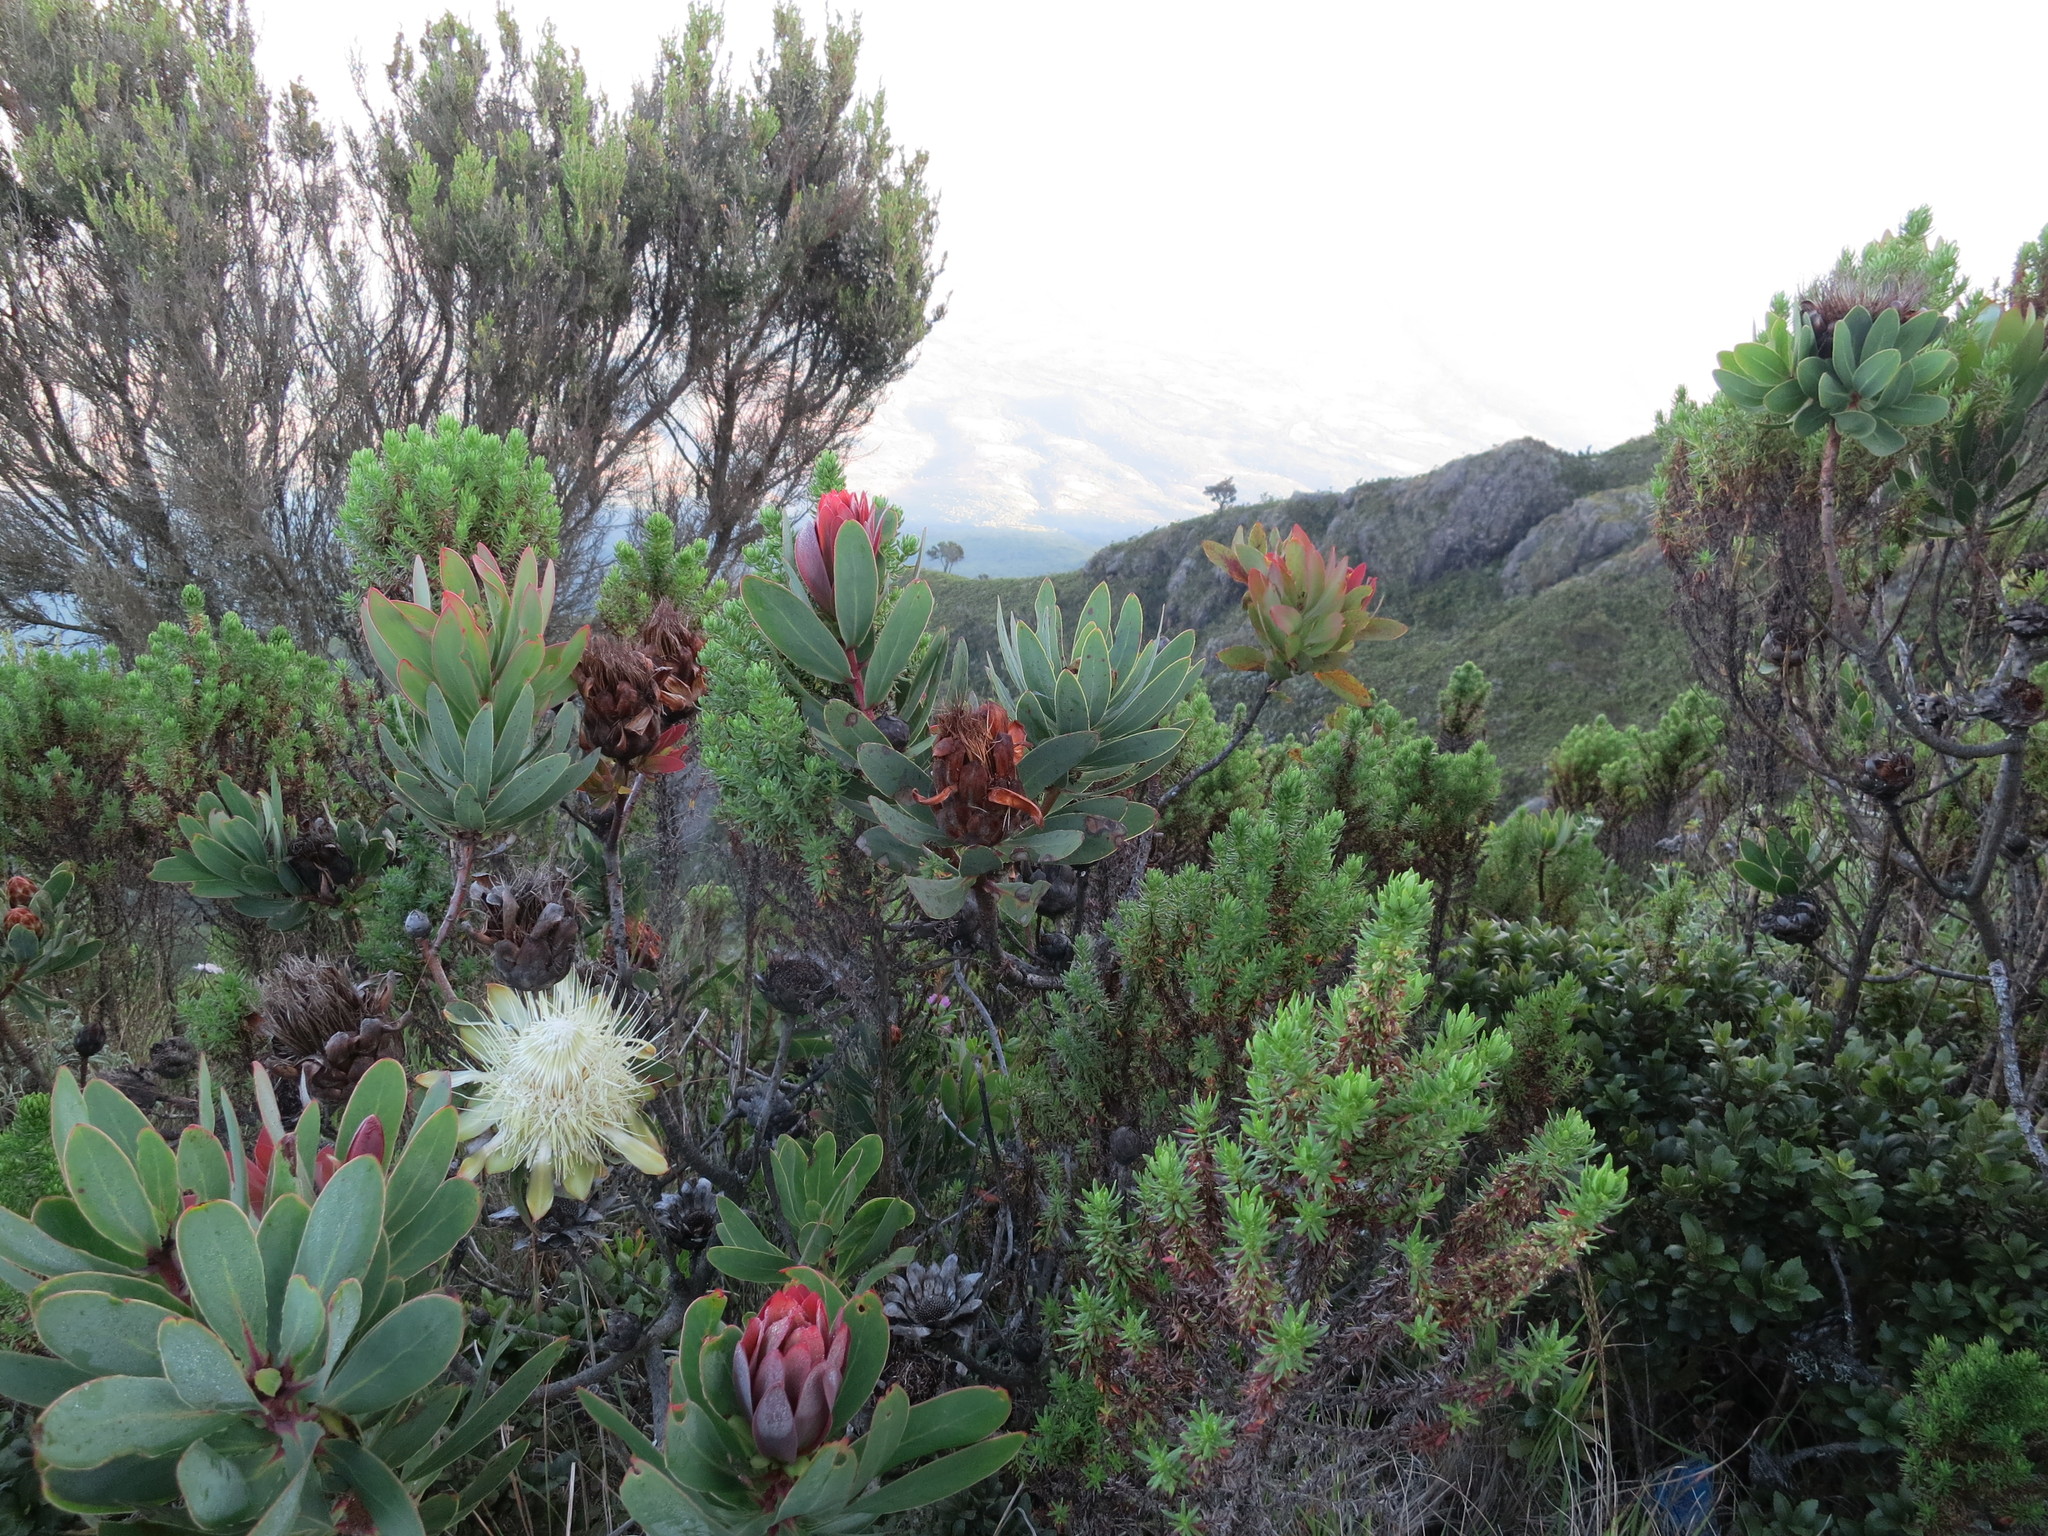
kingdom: Plantae
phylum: Tracheophyta
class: Magnoliopsida
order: Proteales
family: Proteaceae
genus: Protea
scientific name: Protea caffra
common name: Common sugarbush
